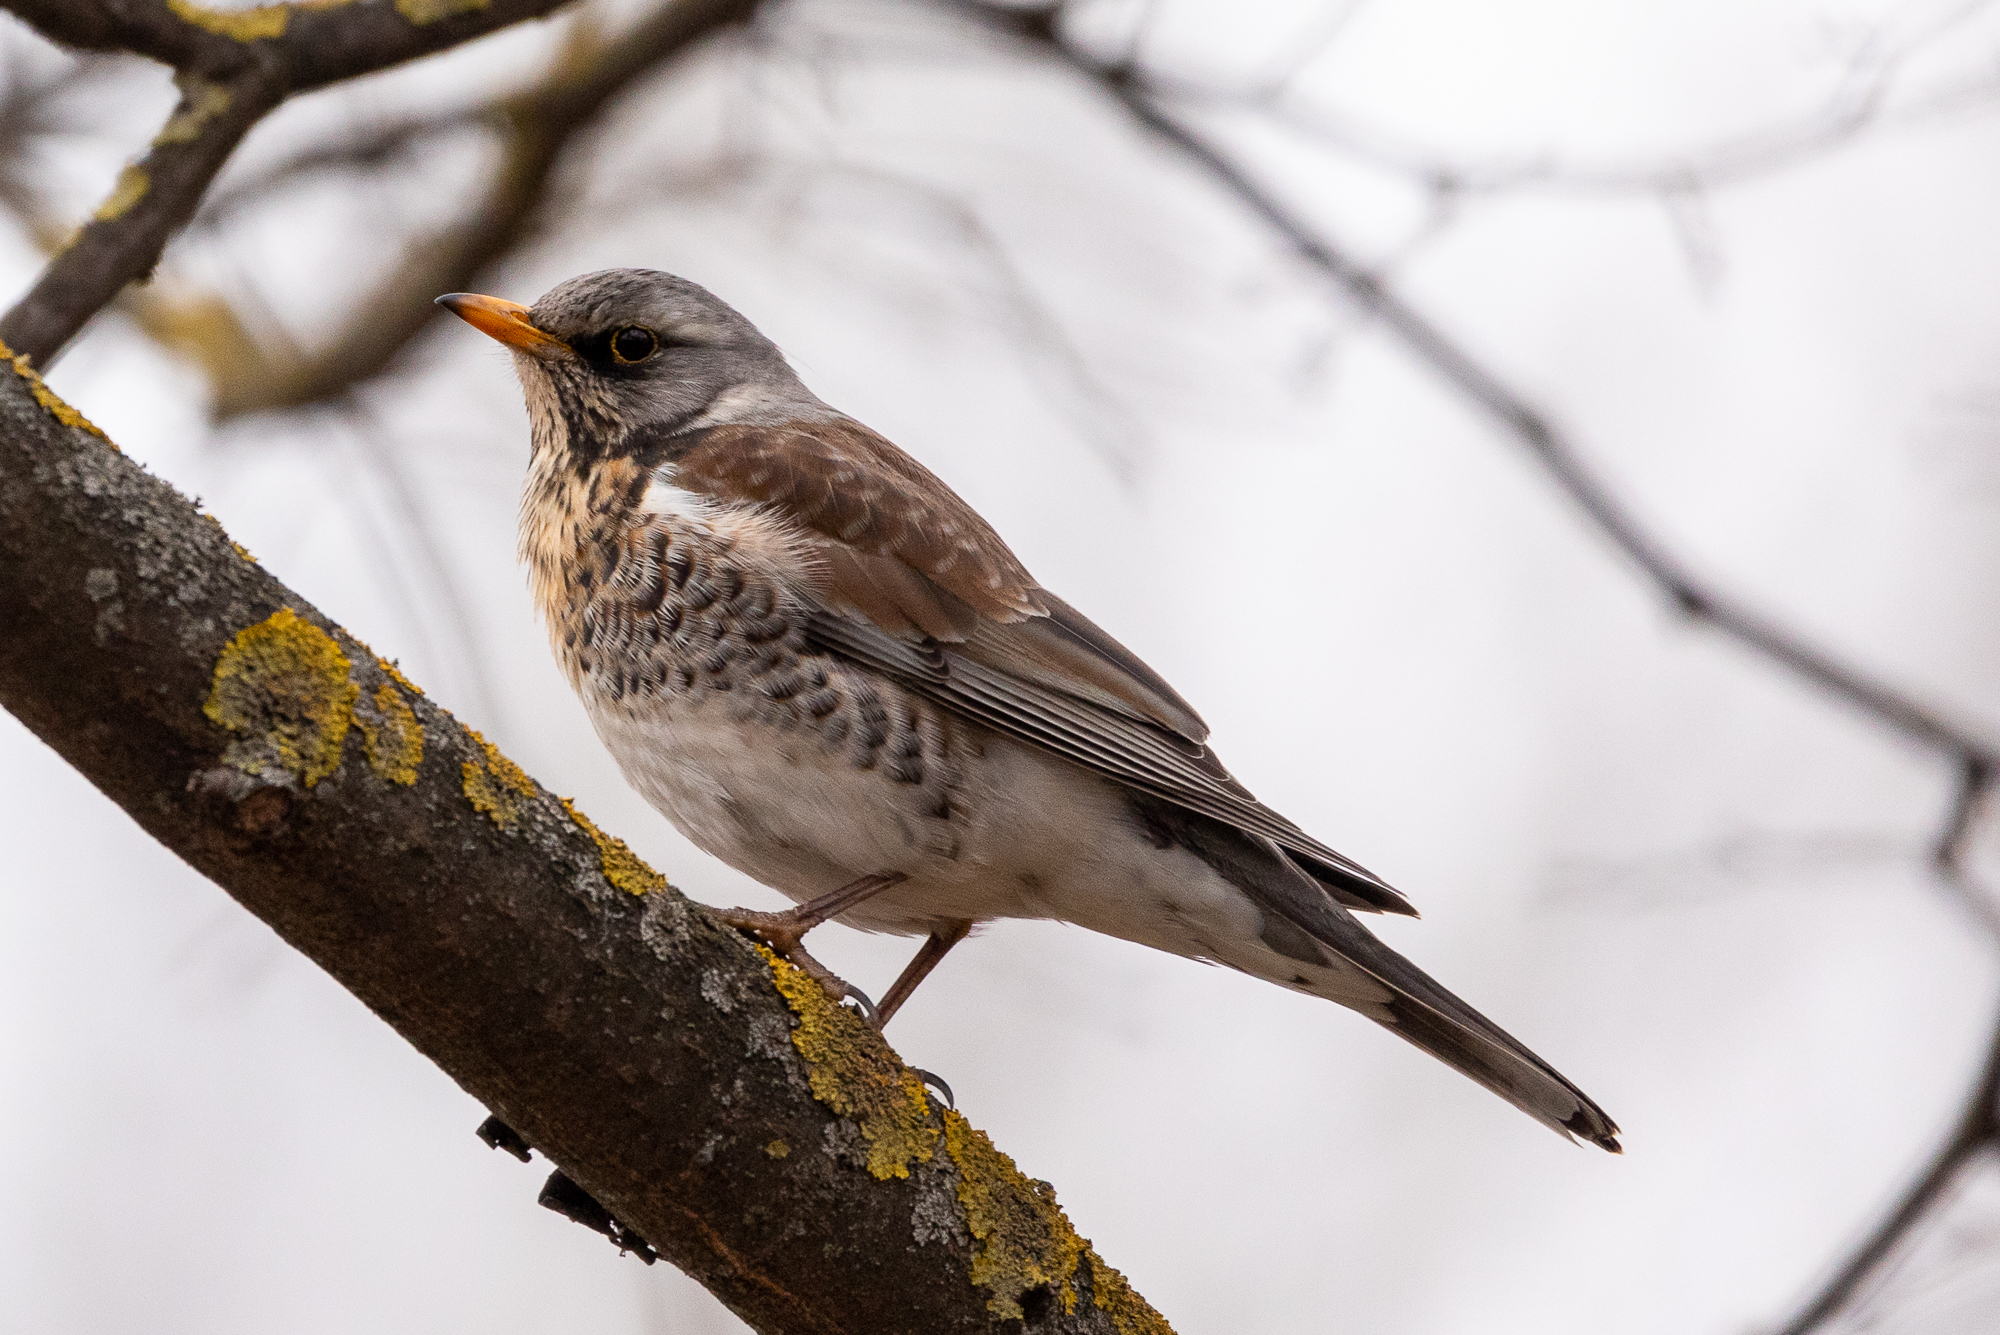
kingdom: Animalia
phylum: Chordata
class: Aves
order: Passeriformes
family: Turdidae
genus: Turdus
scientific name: Turdus pilaris
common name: Fieldfare
